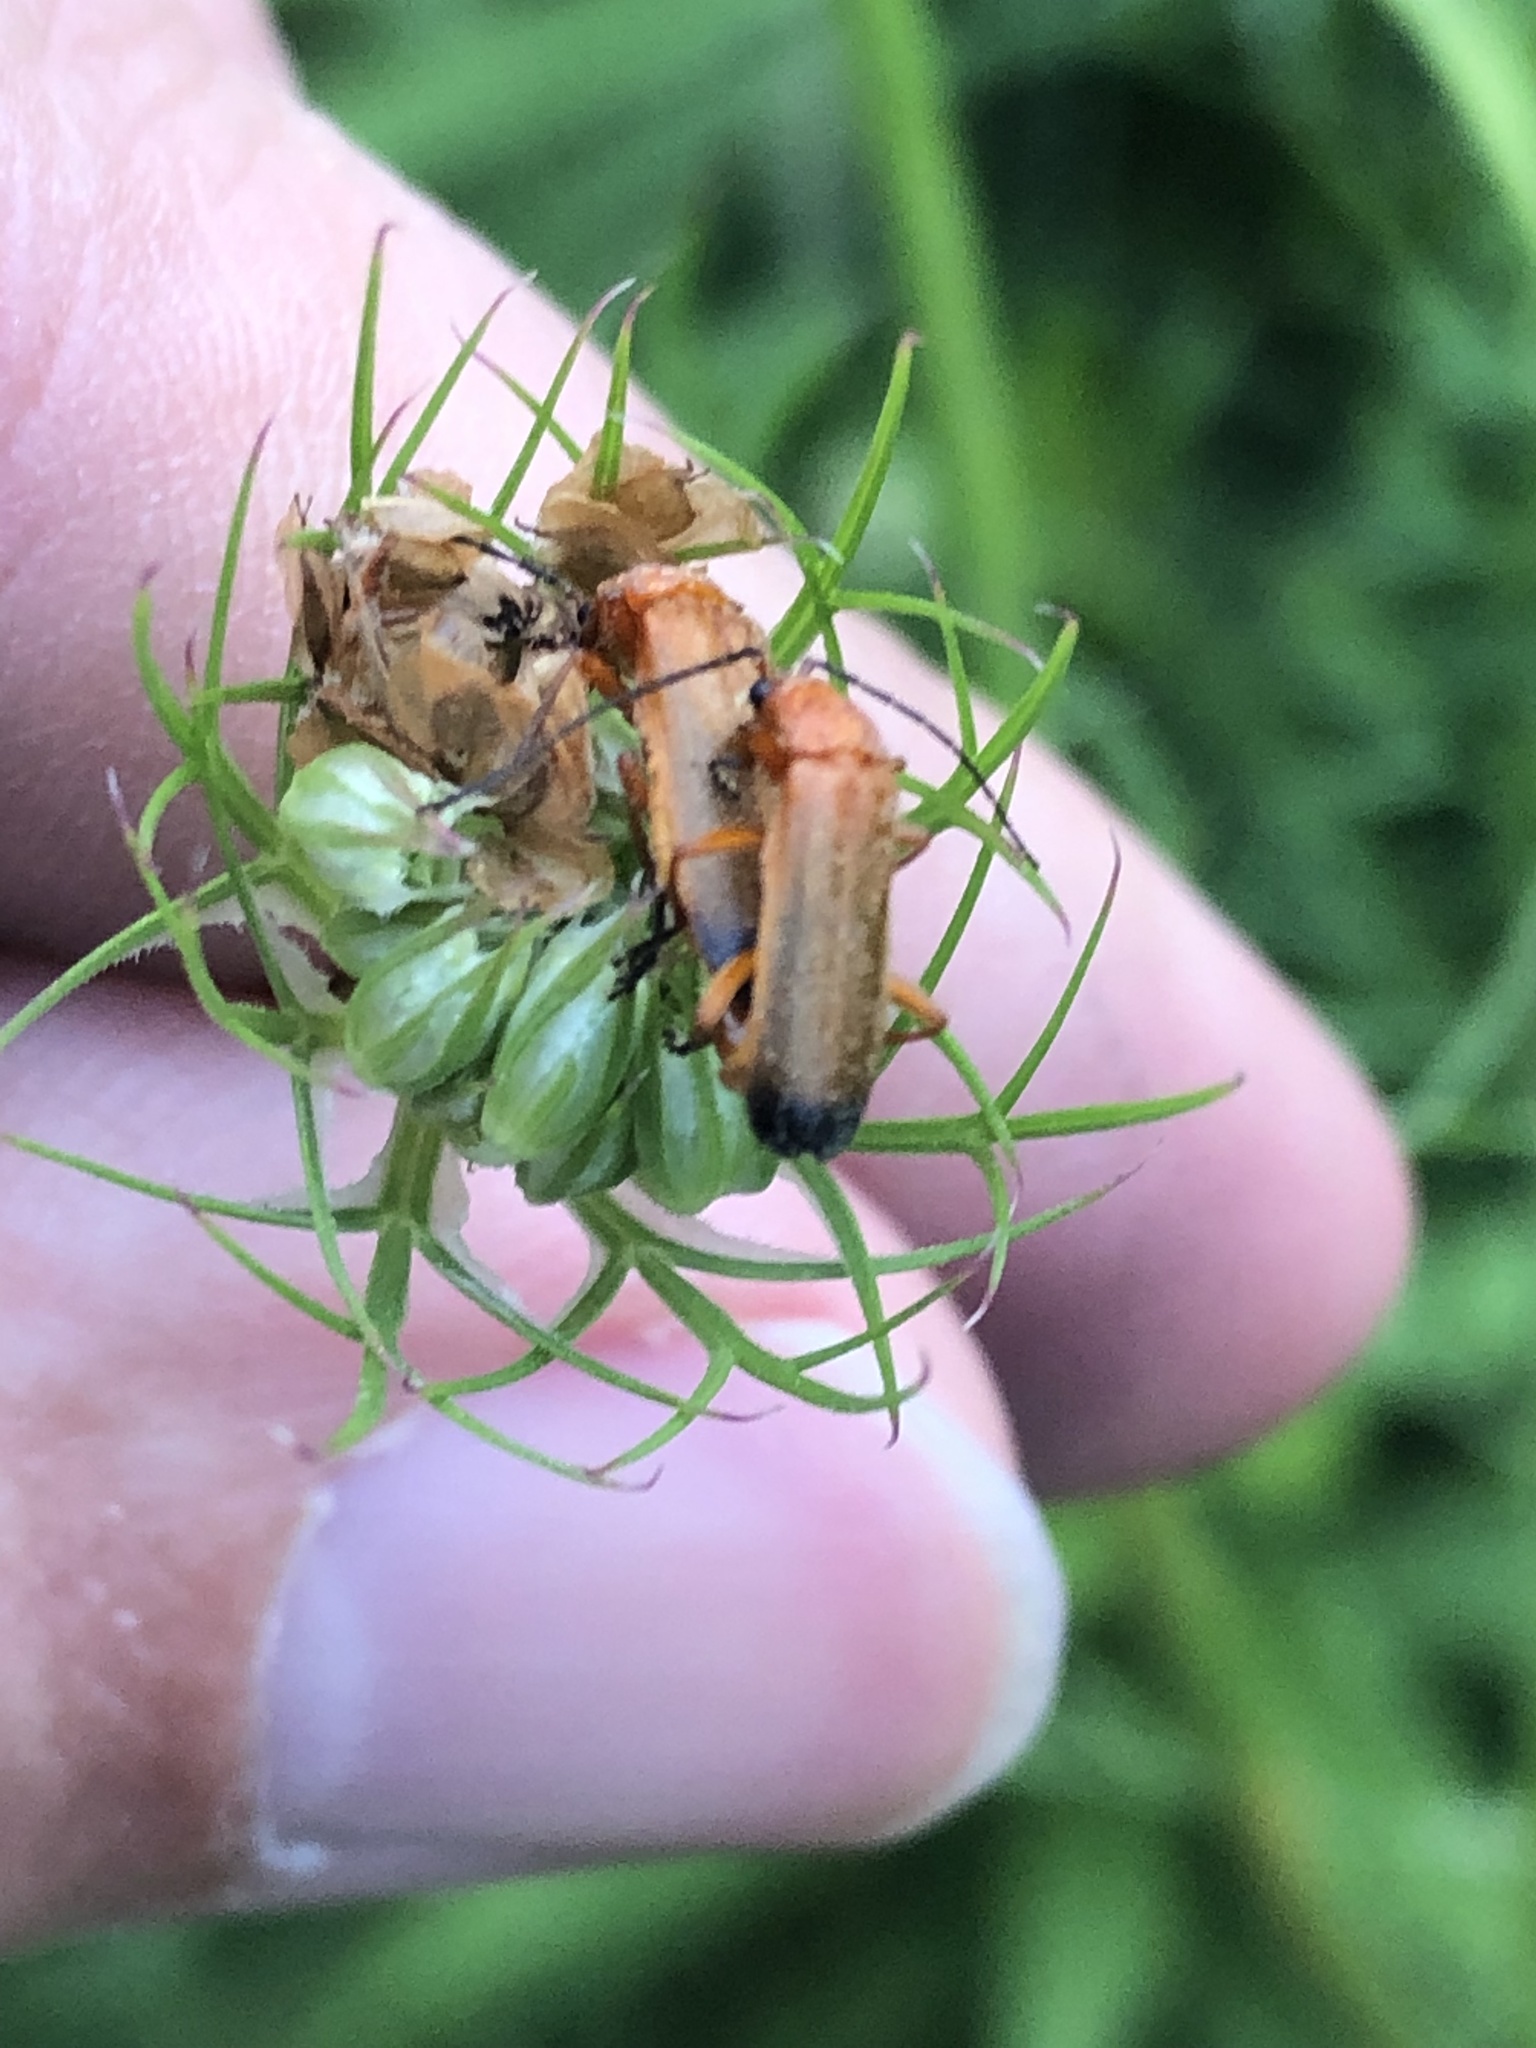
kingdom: Animalia
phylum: Arthropoda
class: Insecta
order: Coleoptera
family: Cantharidae
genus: Rhagonycha
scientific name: Rhagonycha fulva
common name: Common red soldier beetle
